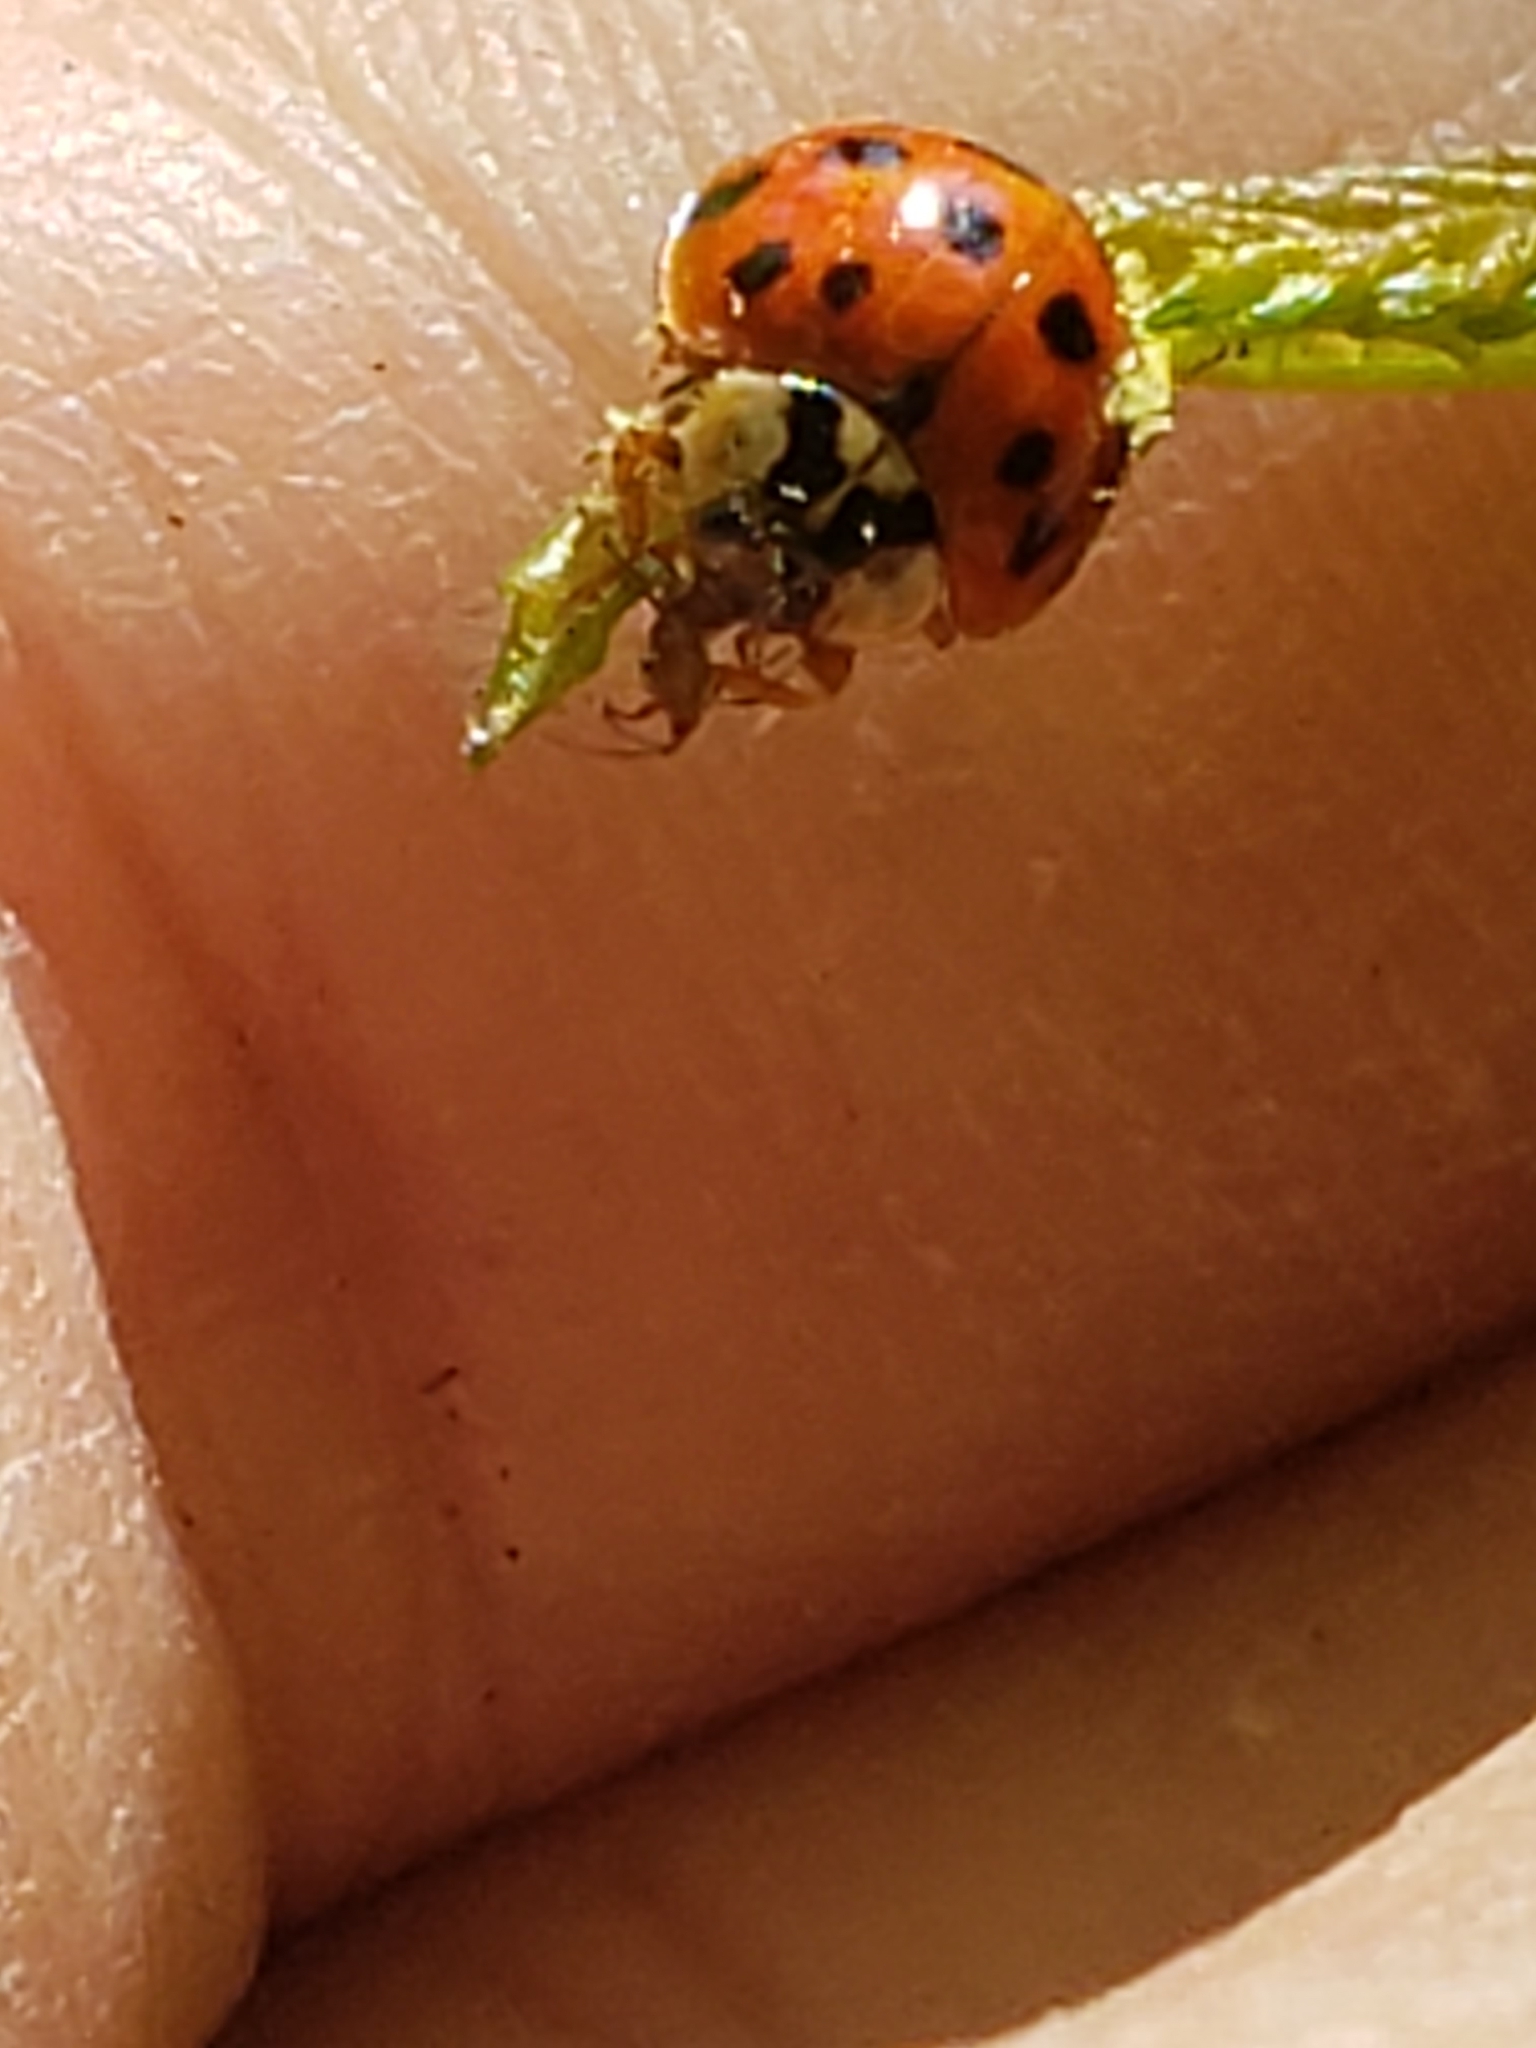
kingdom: Animalia
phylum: Arthropoda
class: Insecta
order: Coleoptera
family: Coccinellidae
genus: Harmonia
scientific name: Harmonia axyridis
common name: Harlequin ladybird
